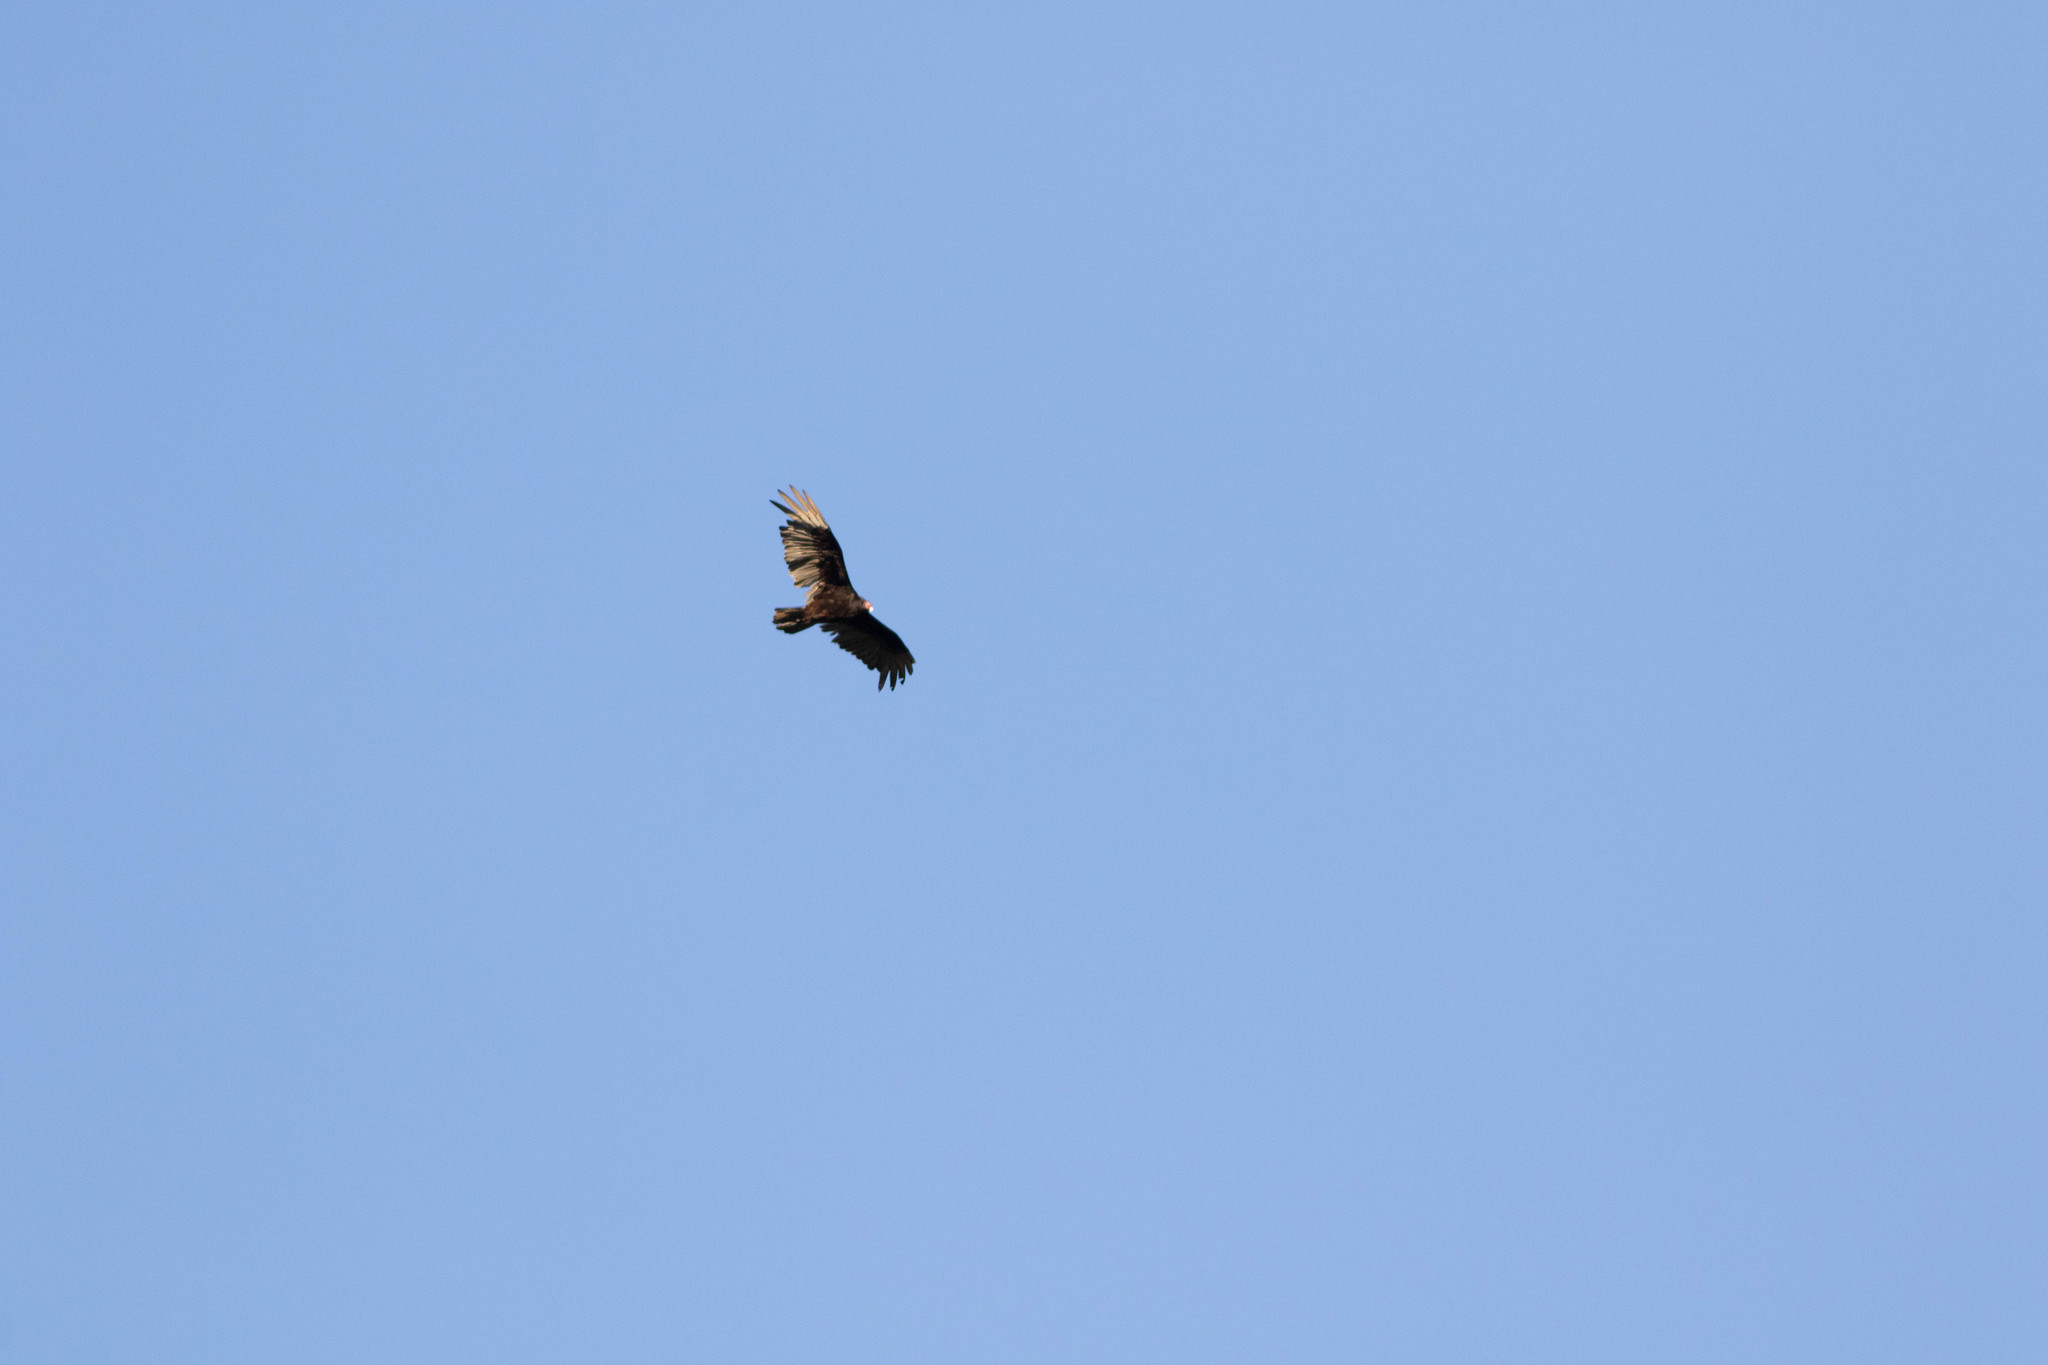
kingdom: Animalia
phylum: Chordata
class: Aves
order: Accipitriformes
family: Cathartidae
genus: Cathartes
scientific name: Cathartes aura
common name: Turkey vulture
